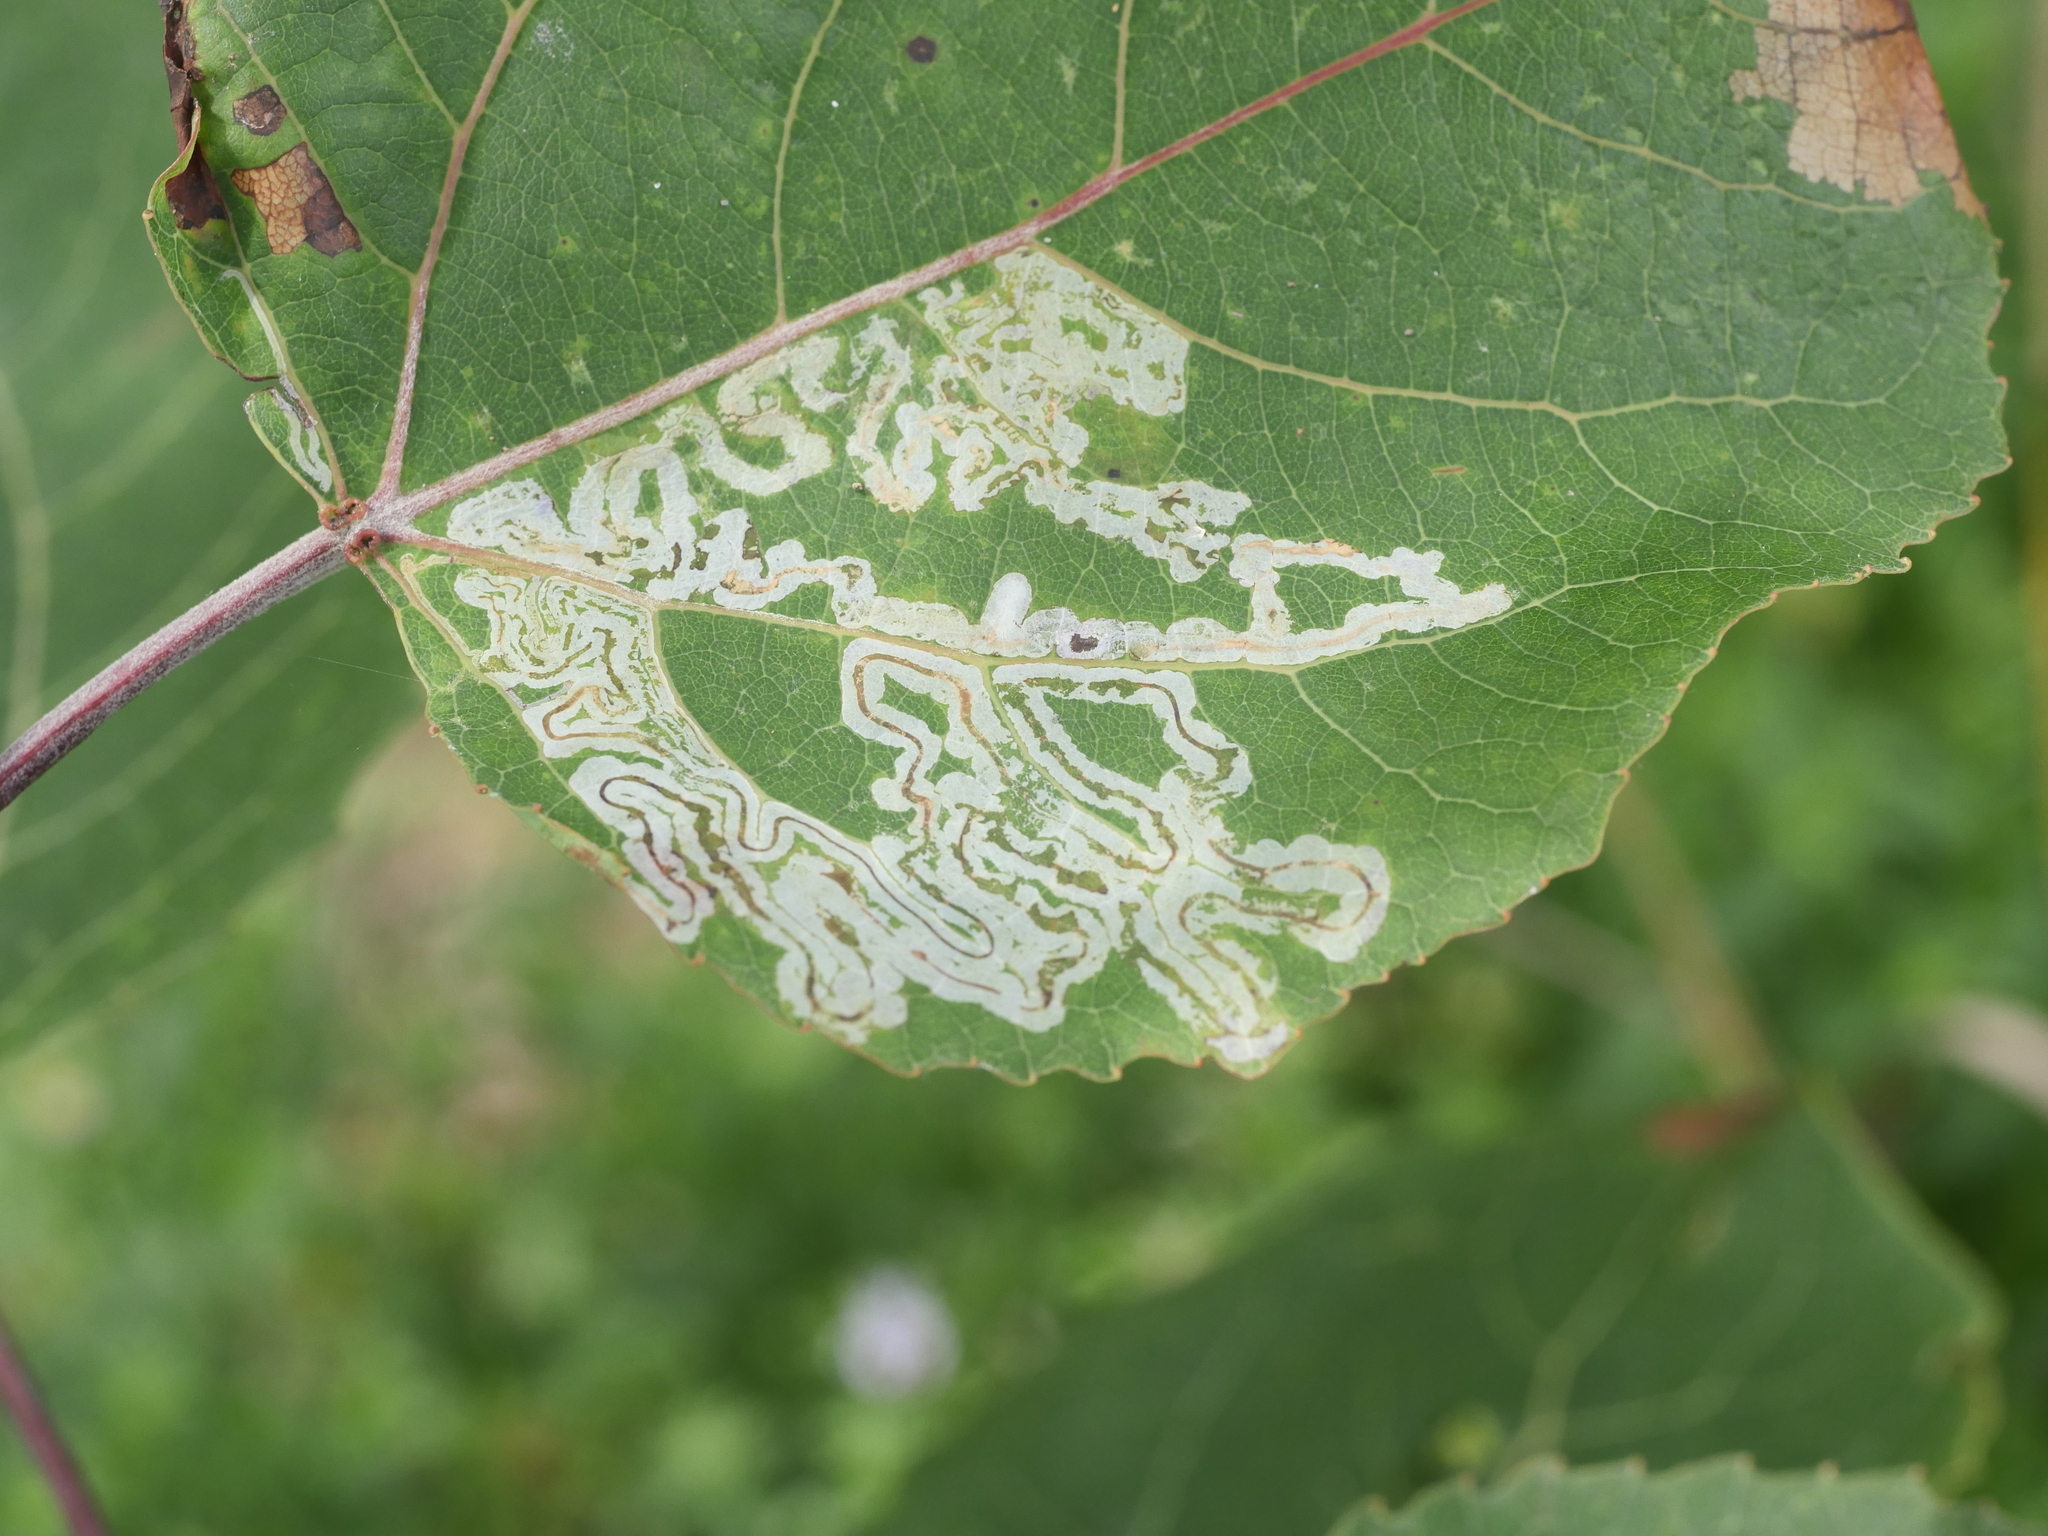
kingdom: Animalia
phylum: Arthropoda
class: Insecta
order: Lepidoptera
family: Gracillariidae
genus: Phyllocnistis
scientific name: Phyllocnistis populiella
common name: Aspen serpentine leafminer moth
